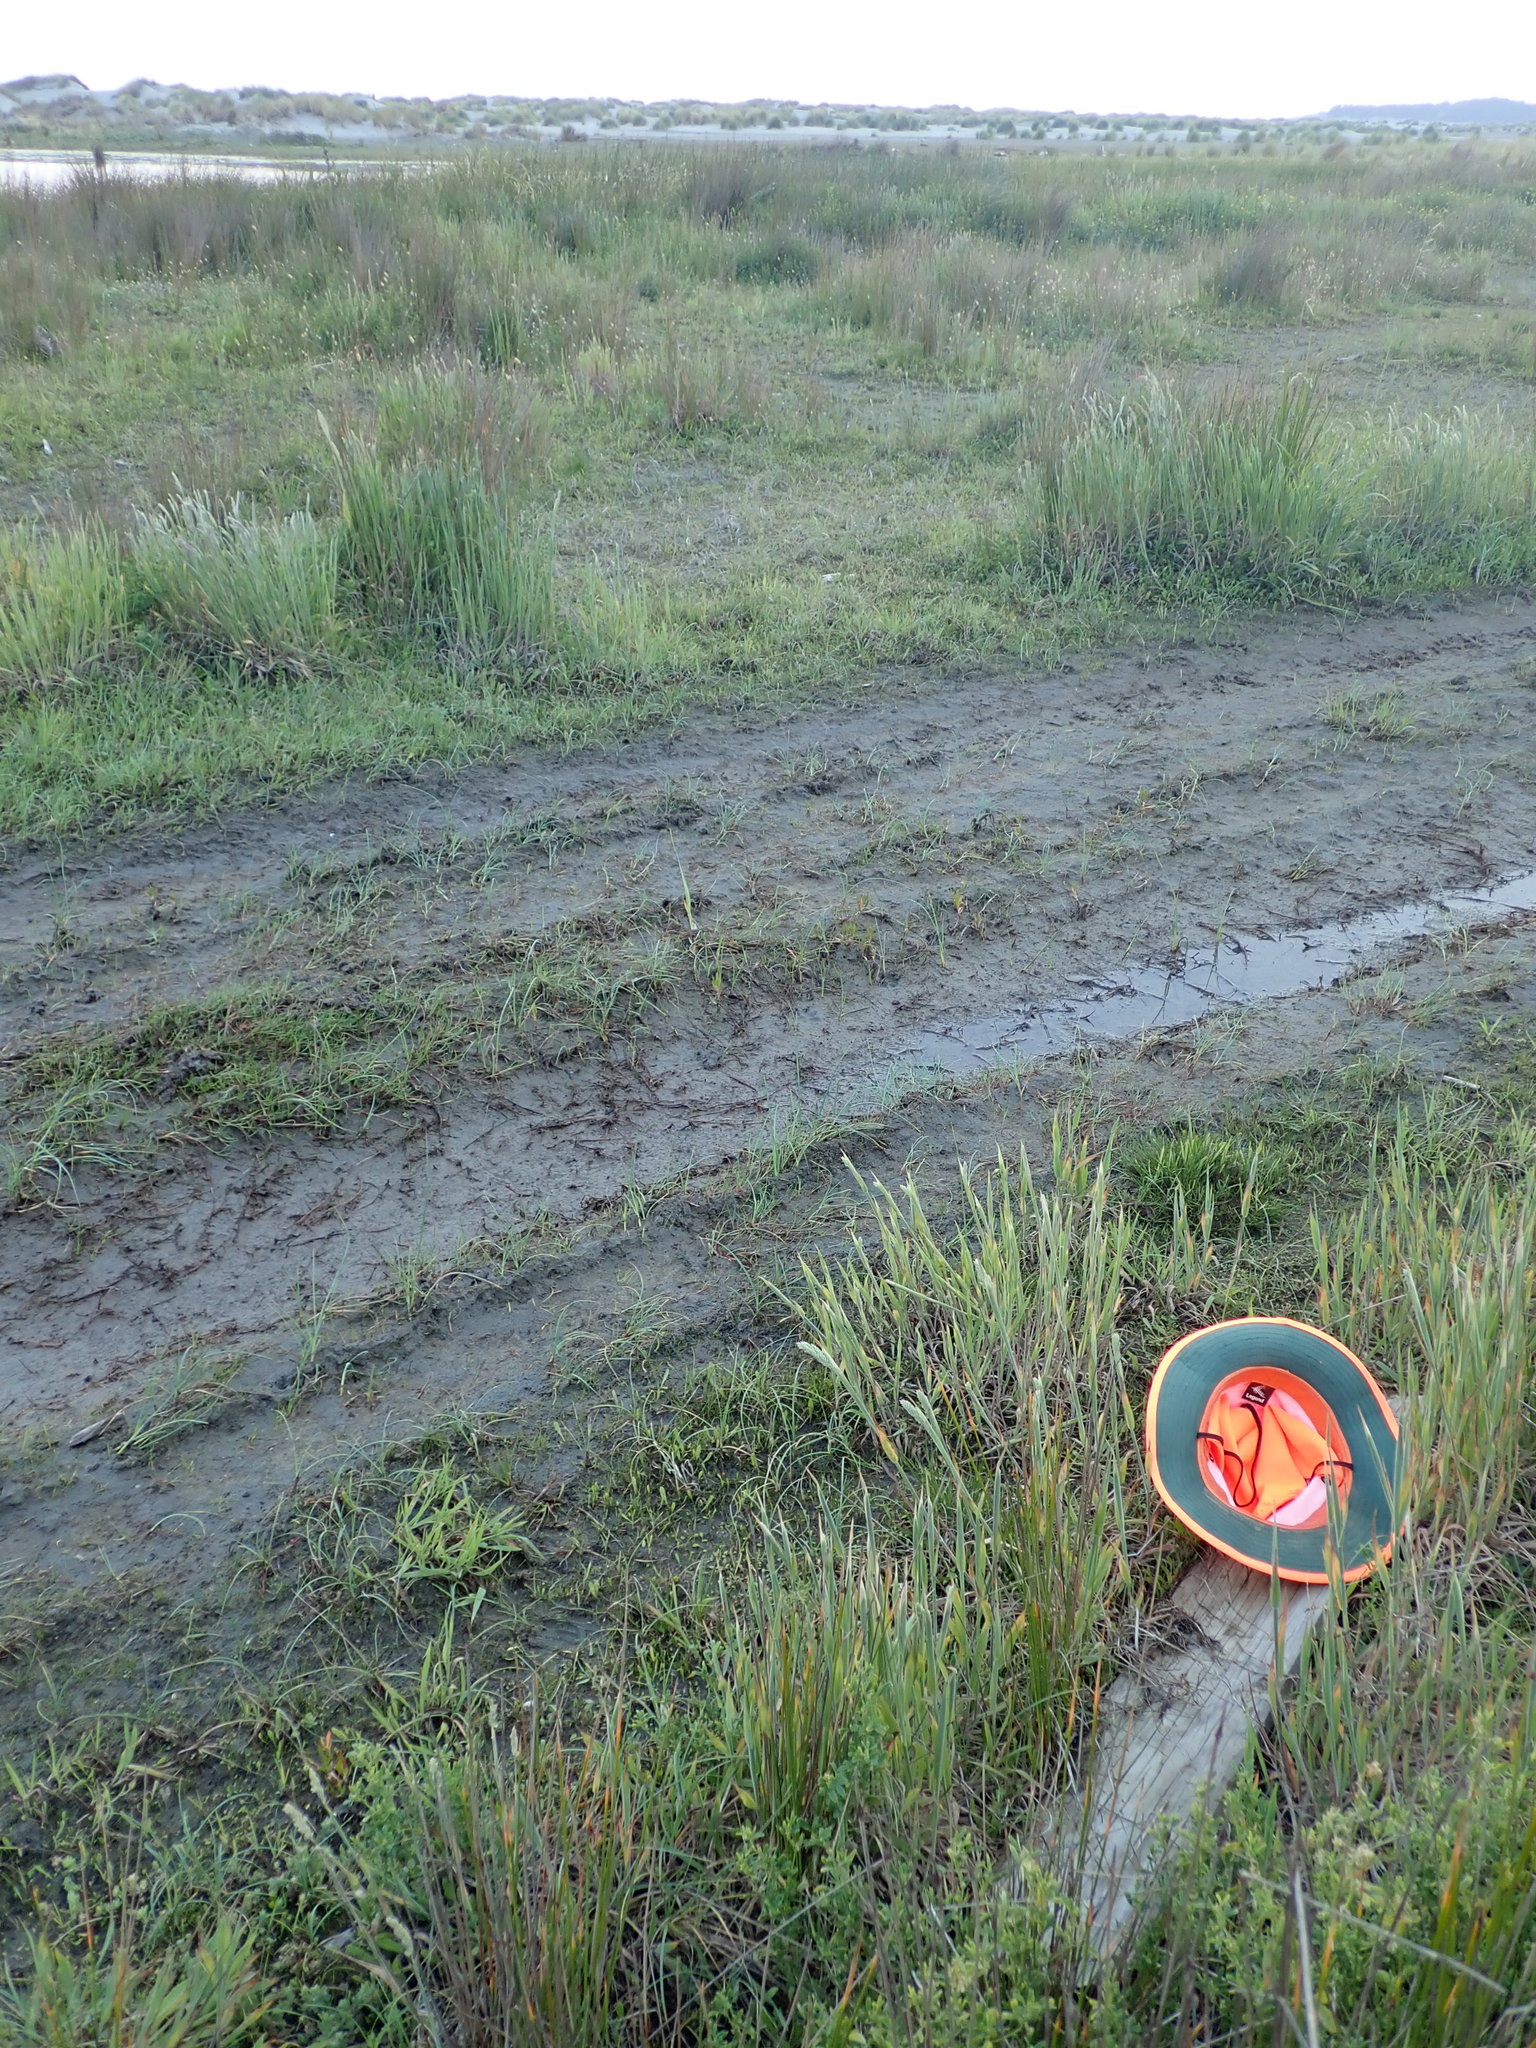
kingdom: Animalia
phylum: Platyhelminthes
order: Tricladida
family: Geoplanidae
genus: Caenoplana
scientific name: Caenoplana coerulea
